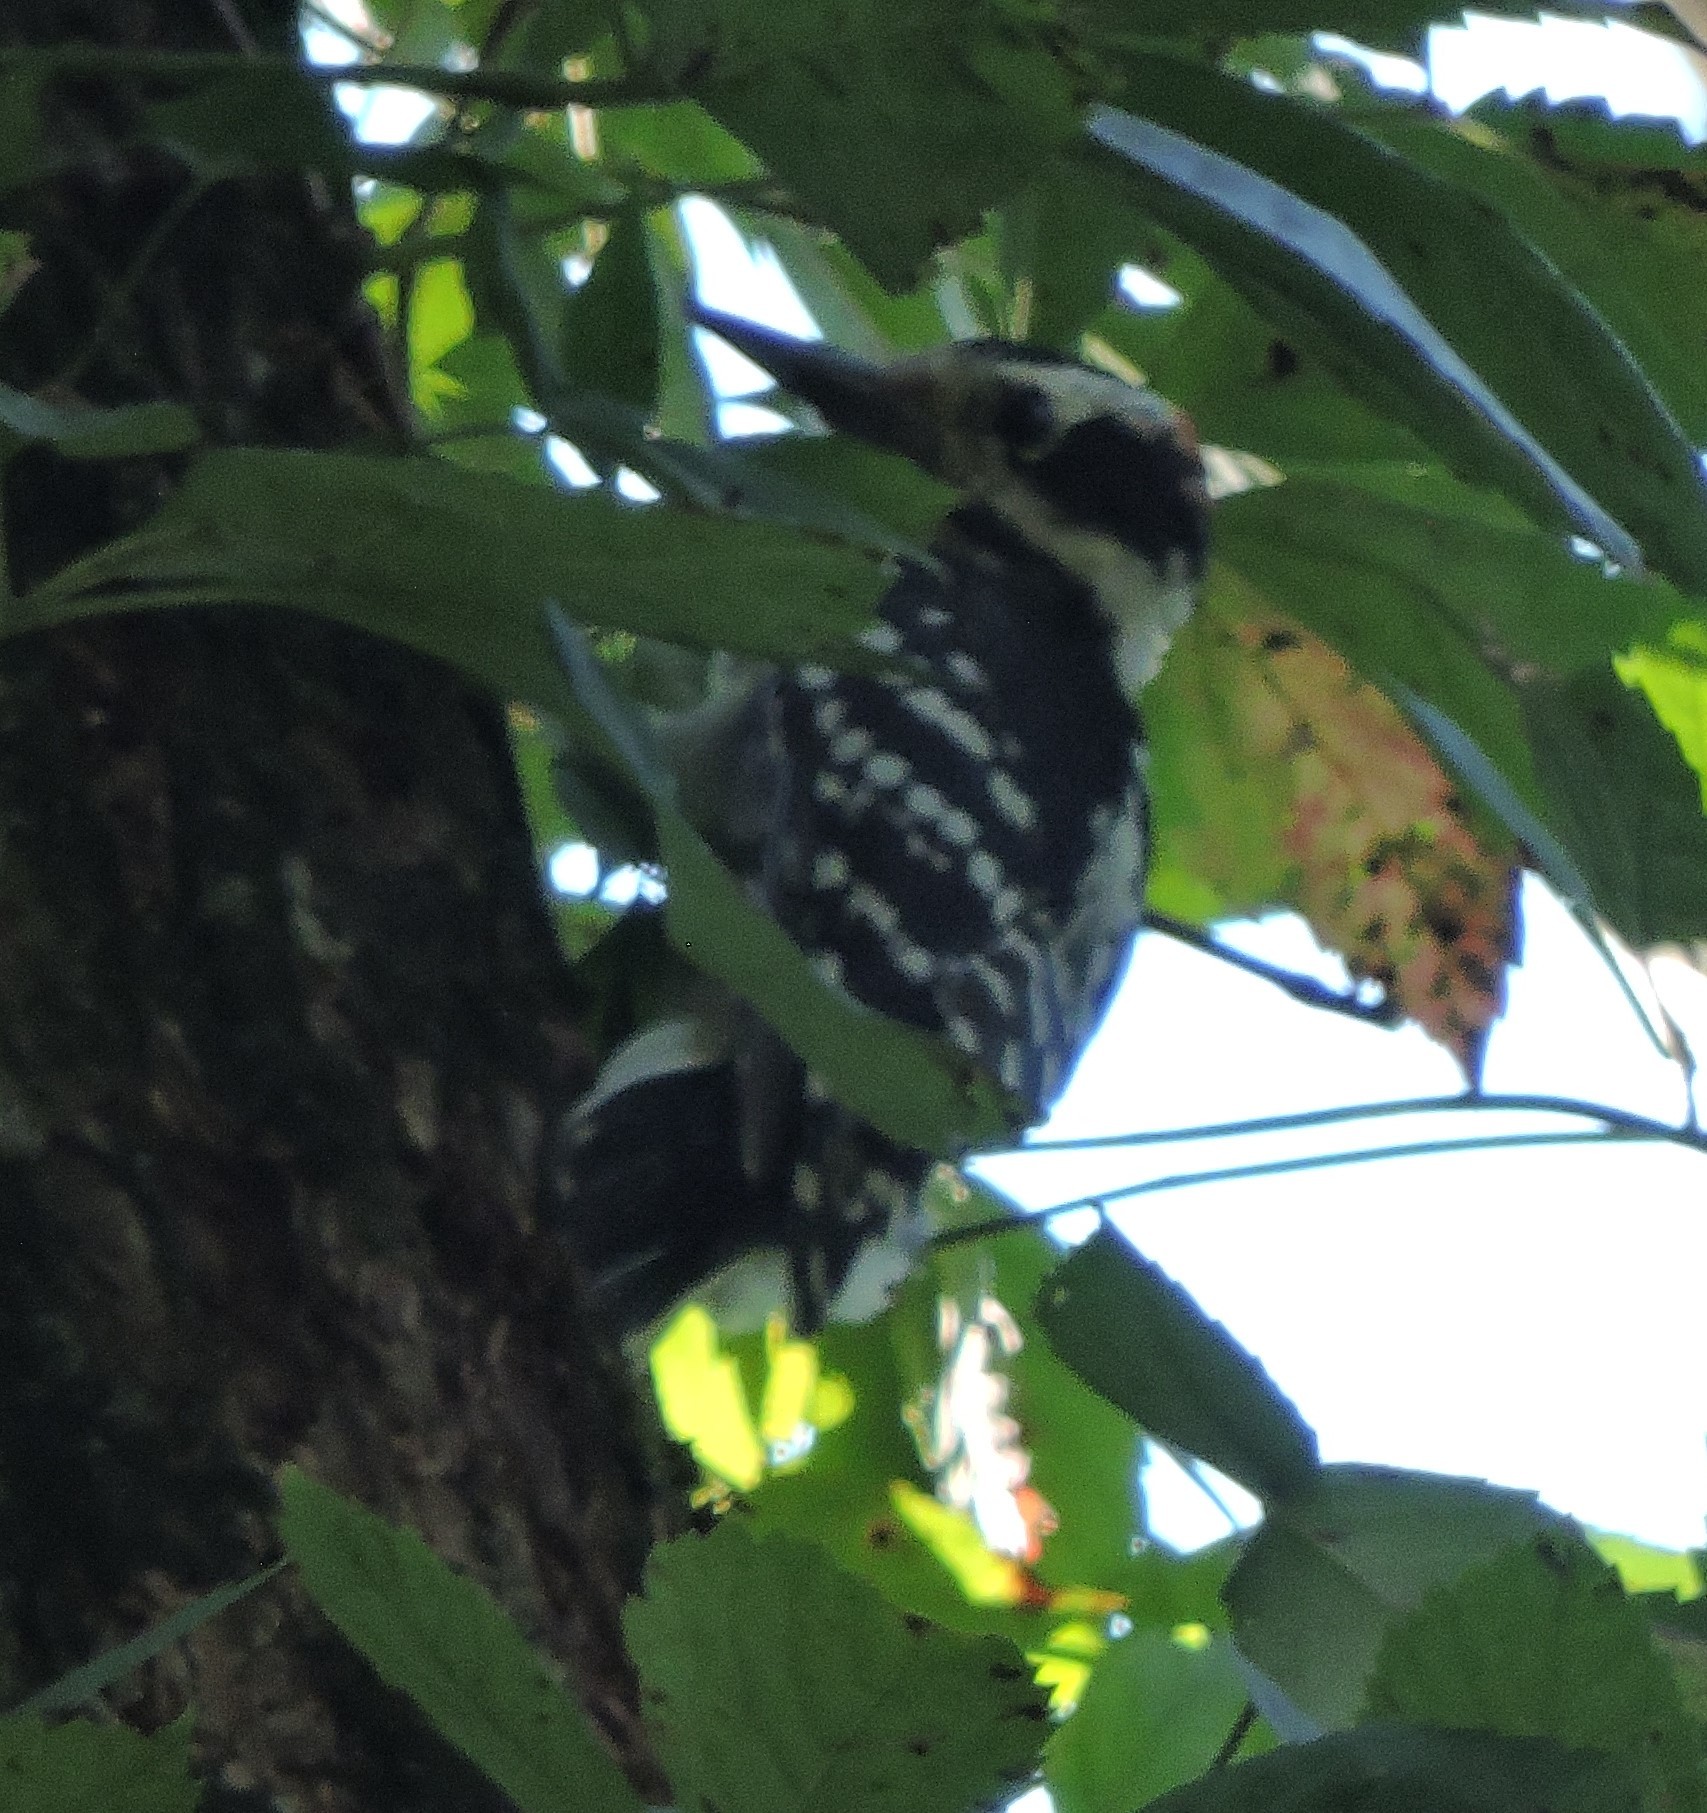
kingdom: Animalia
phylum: Chordata
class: Aves
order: Piciformes
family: Picidae
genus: Leuconotopicus
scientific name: Leuconotopicus villosus
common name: Hairy woodpecker
